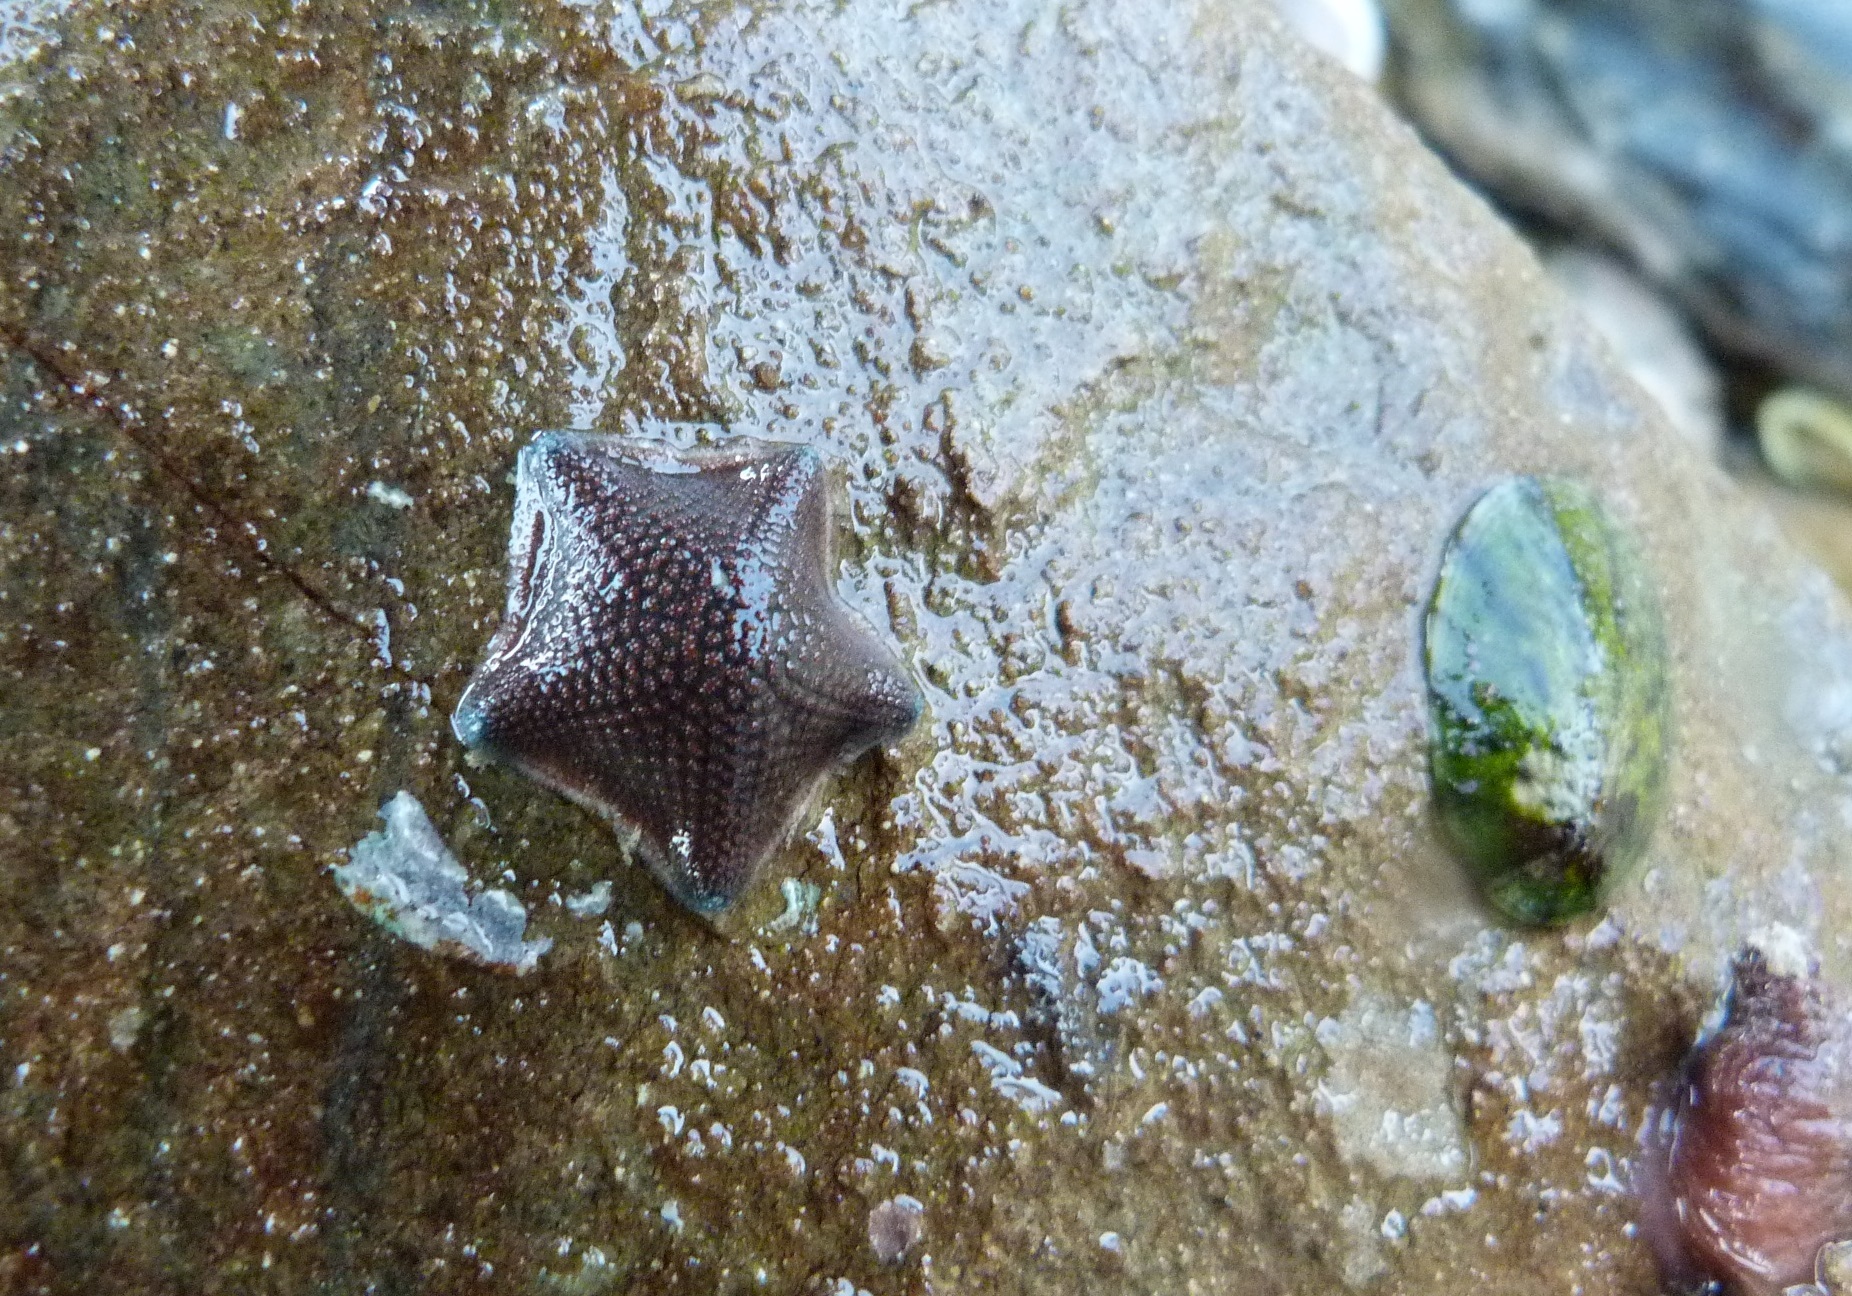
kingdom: Animalia
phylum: Echinodermata
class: Asteroidea
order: Valvatida
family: Asterinidae
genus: Patiriella
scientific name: Patiriella regularis
